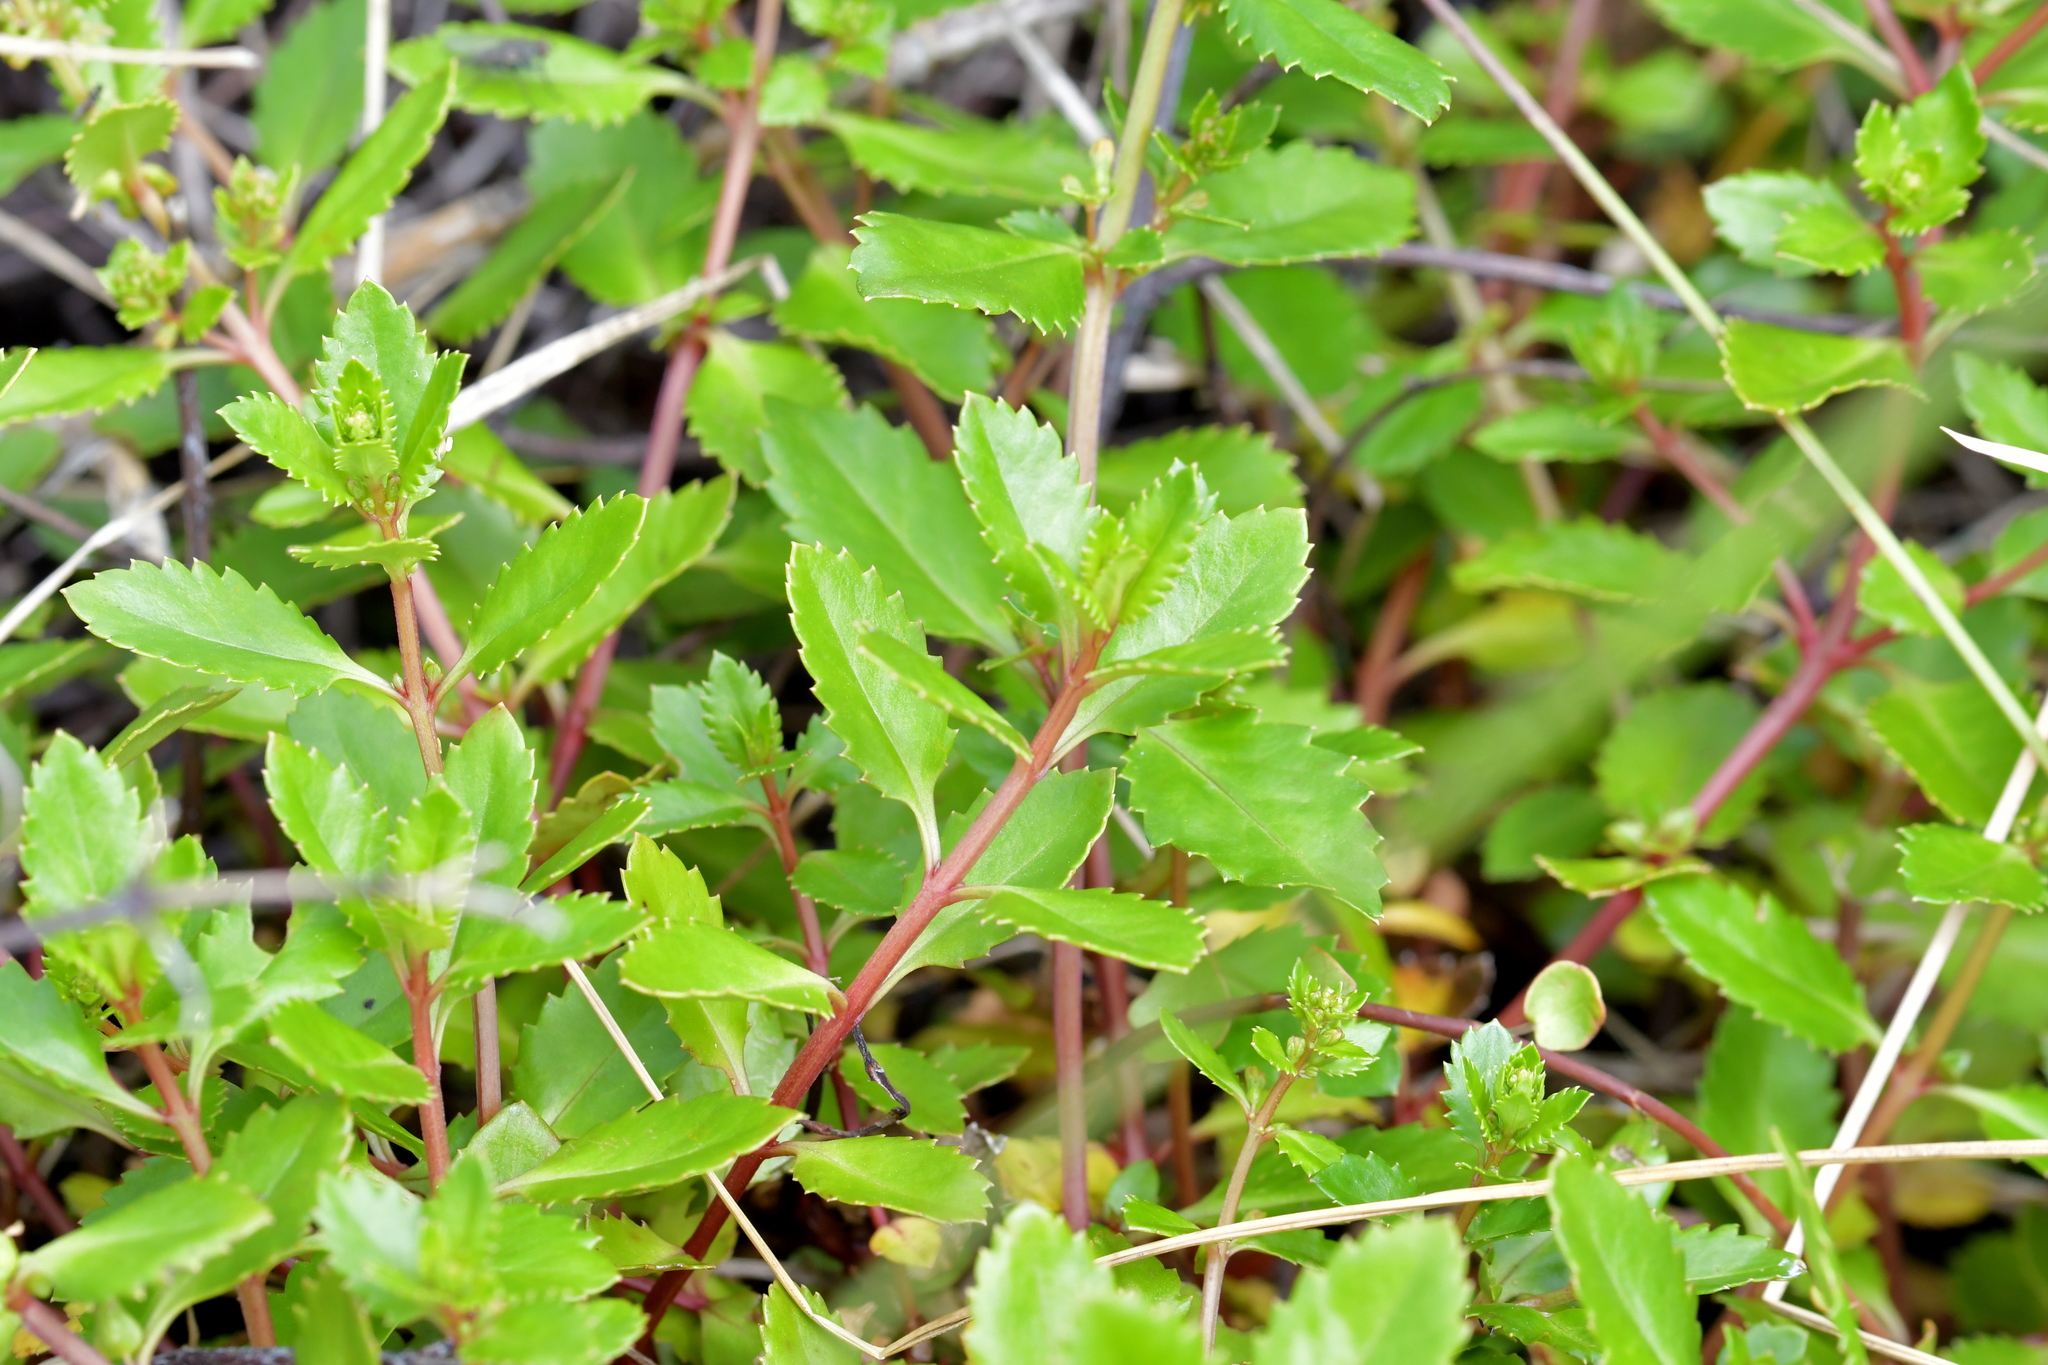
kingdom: Plantae
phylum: Tracheophyta
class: Magnoliopsida
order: Saxifragales
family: Haloragaceae
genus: Haloragis
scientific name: Haloragis erecta
